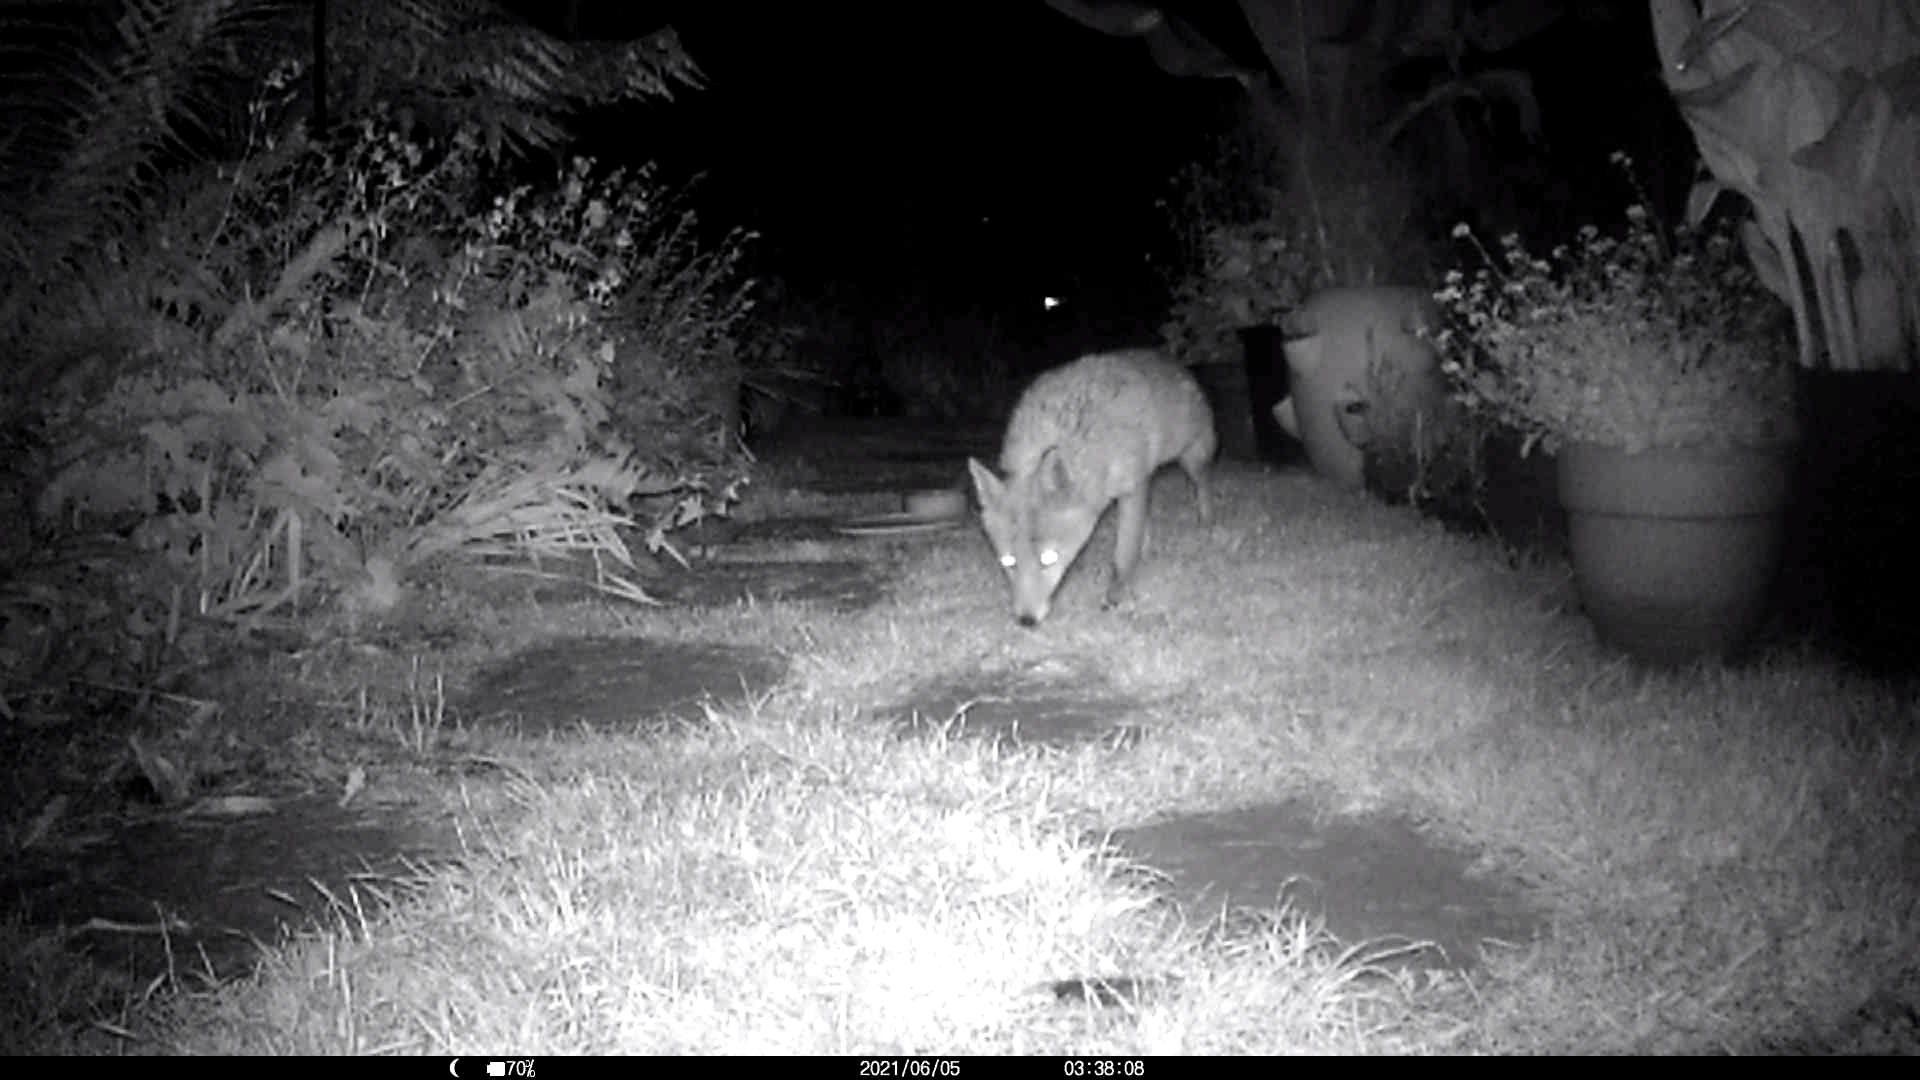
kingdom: Animalia
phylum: Chordata
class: Mammalia
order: Carnivora
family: Canidae
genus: Vulpes
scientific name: Vulpes vulpes
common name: Red fox
